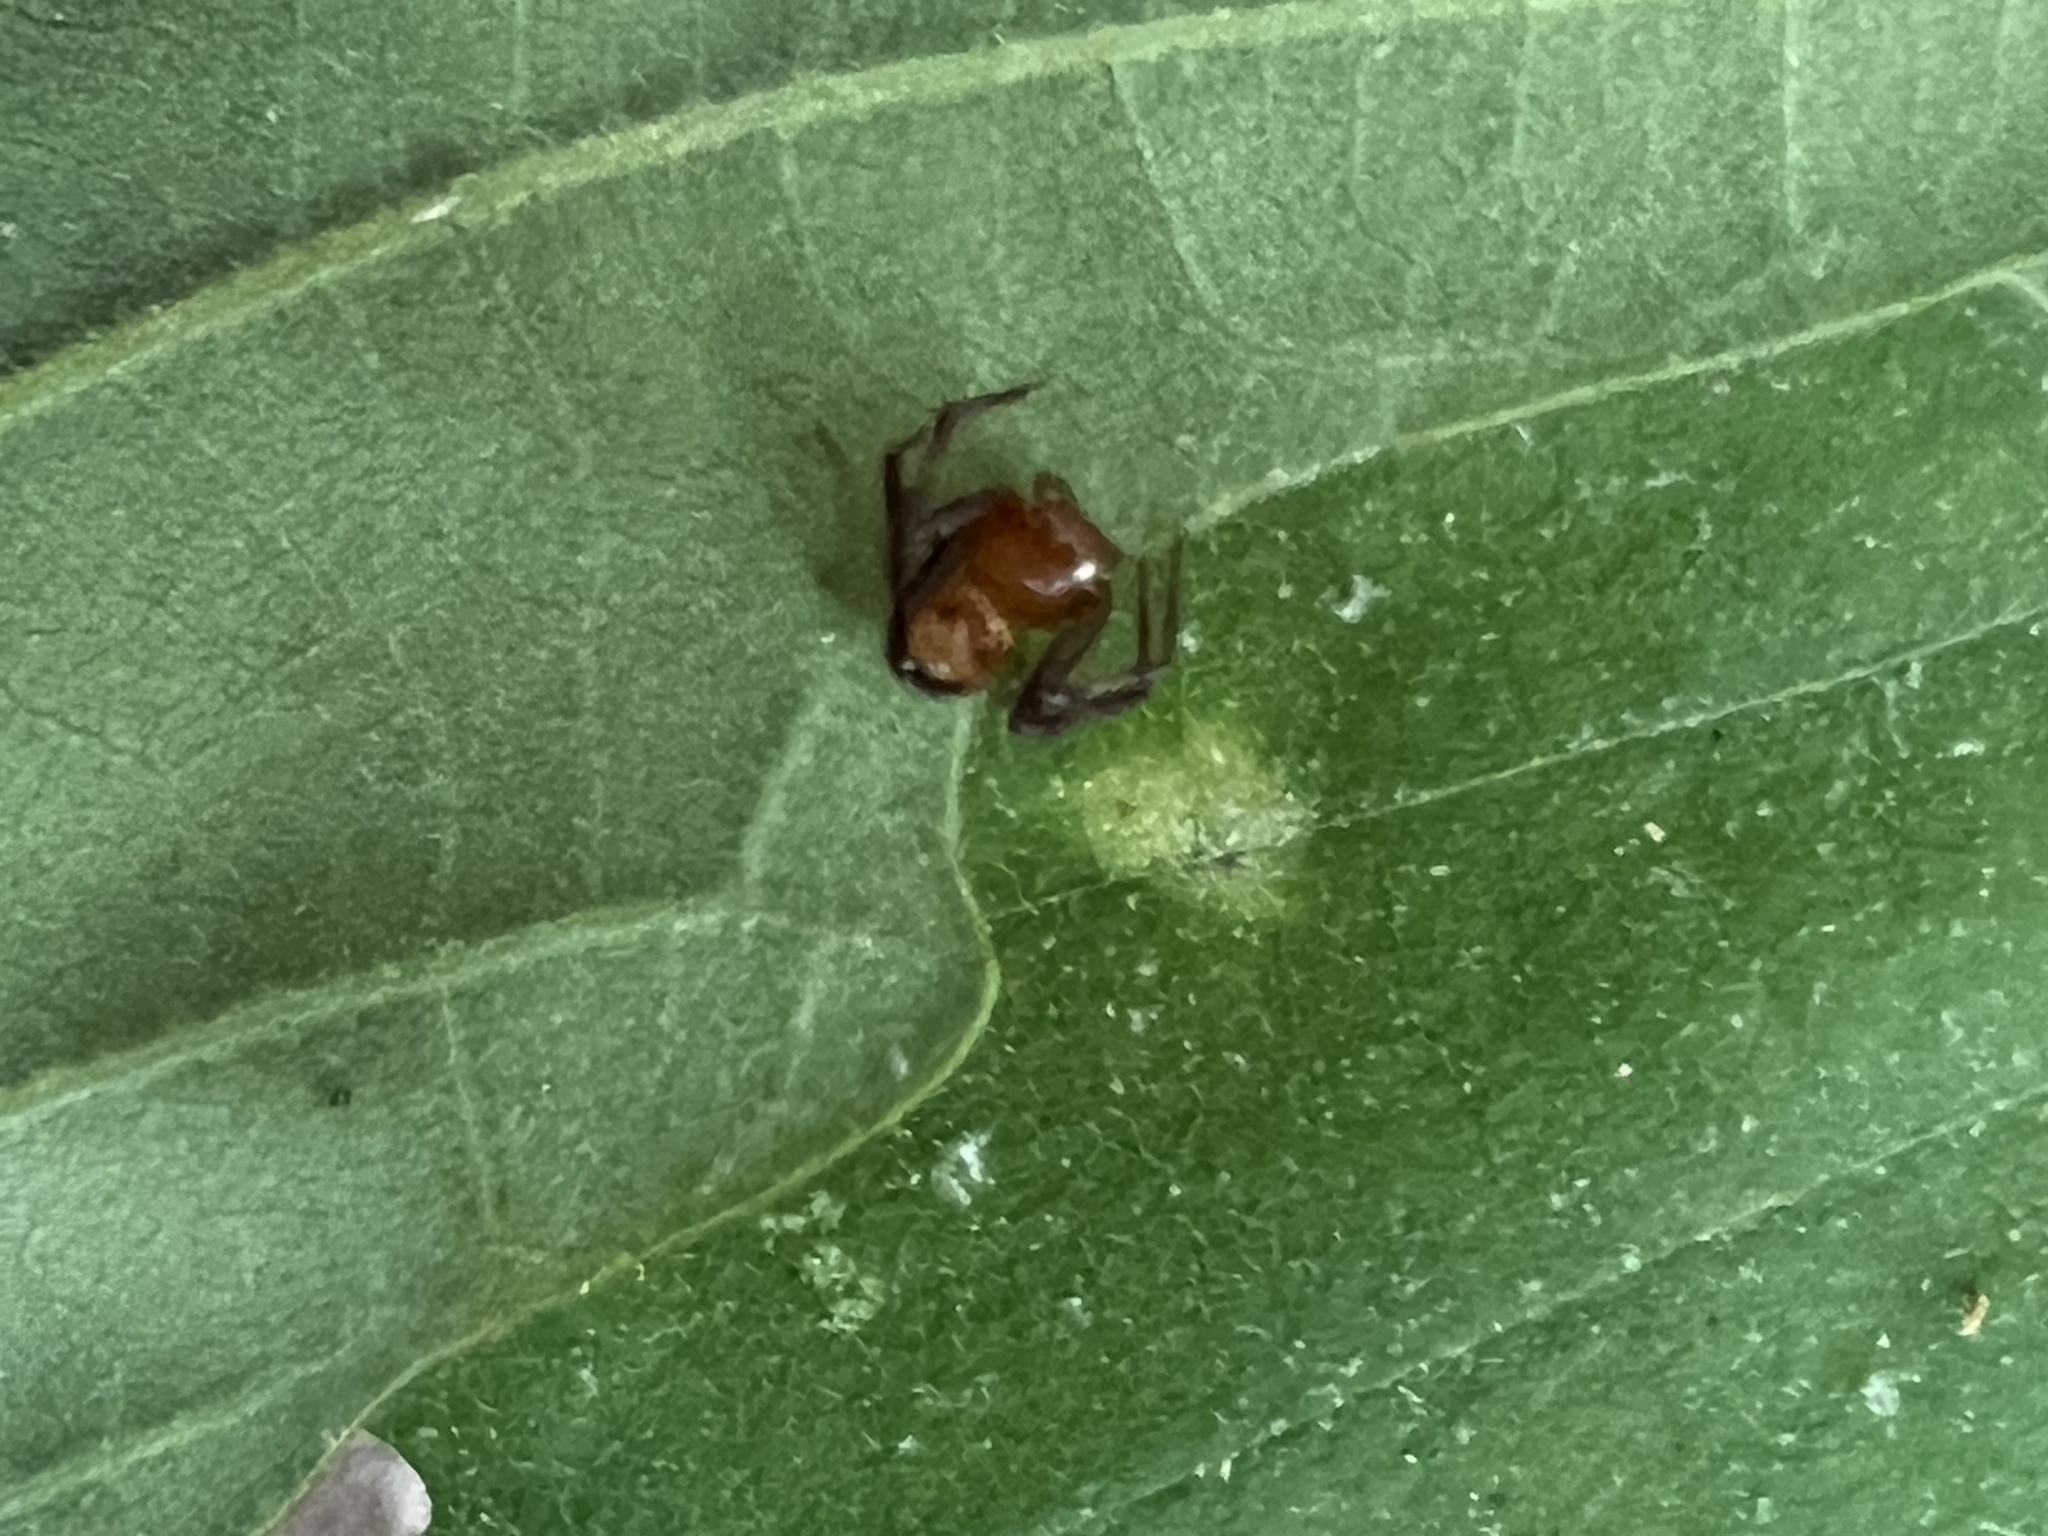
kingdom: Animalia
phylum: Arthropoda
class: Arachnida
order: Araneae
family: Thomisidae
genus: Synema
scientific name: Synema parvulum
